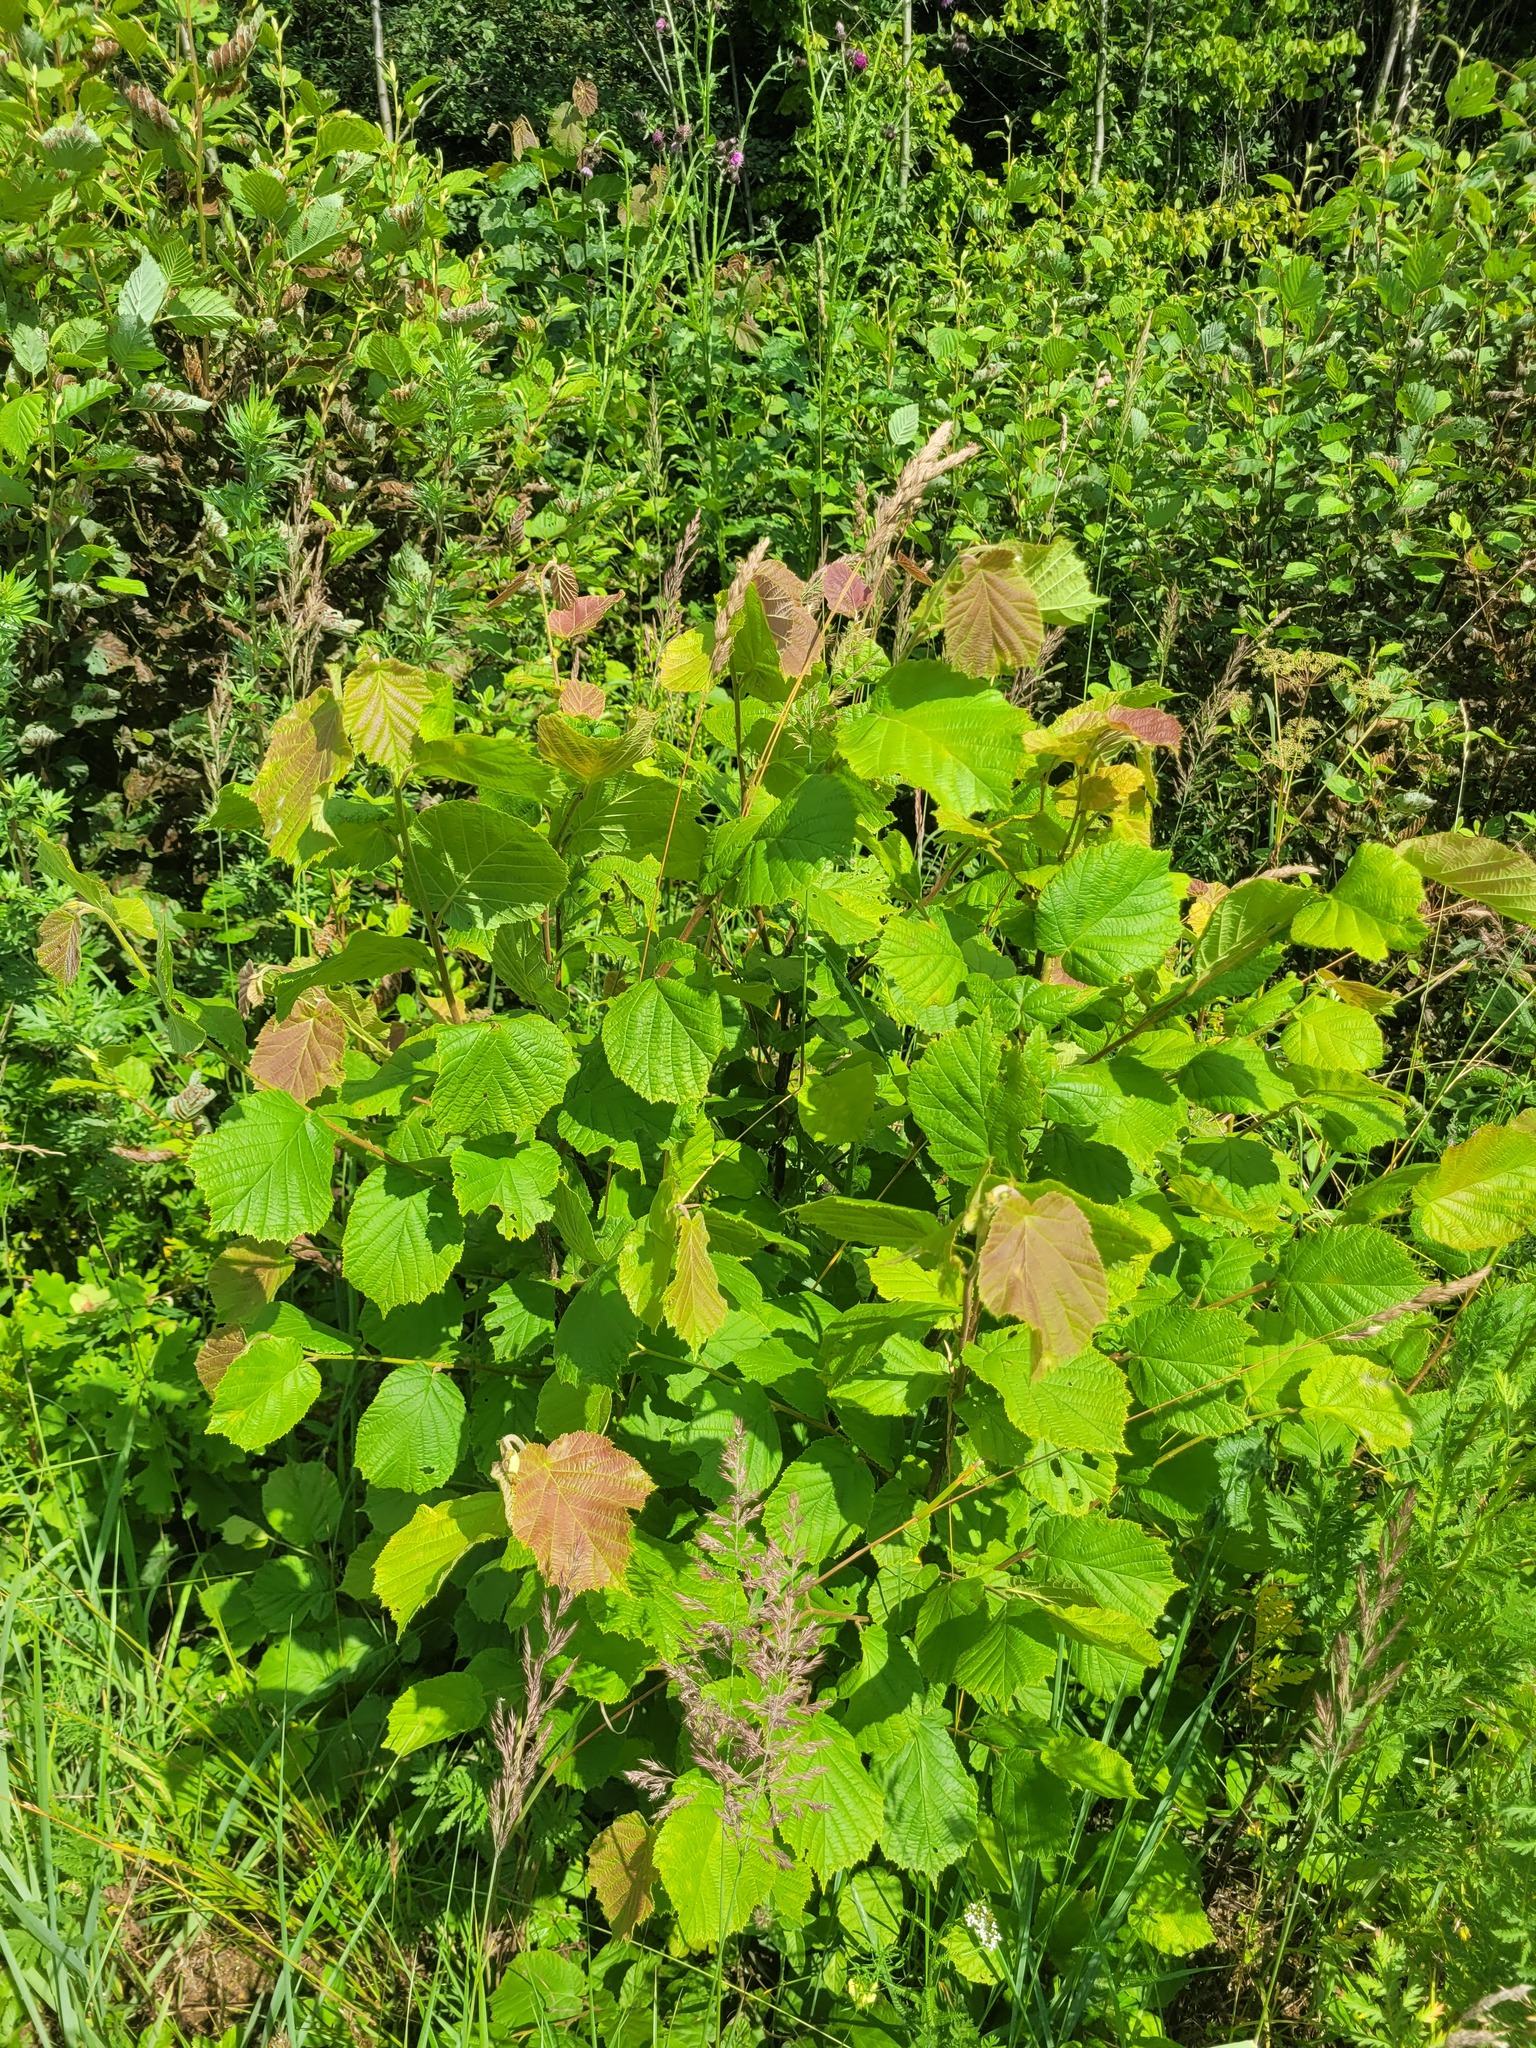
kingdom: Plantae
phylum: Tracheophyta
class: Magnoliopsida
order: Fagales
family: Betulaceae
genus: Corylus
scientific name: Corylus avellana
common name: European hazel
